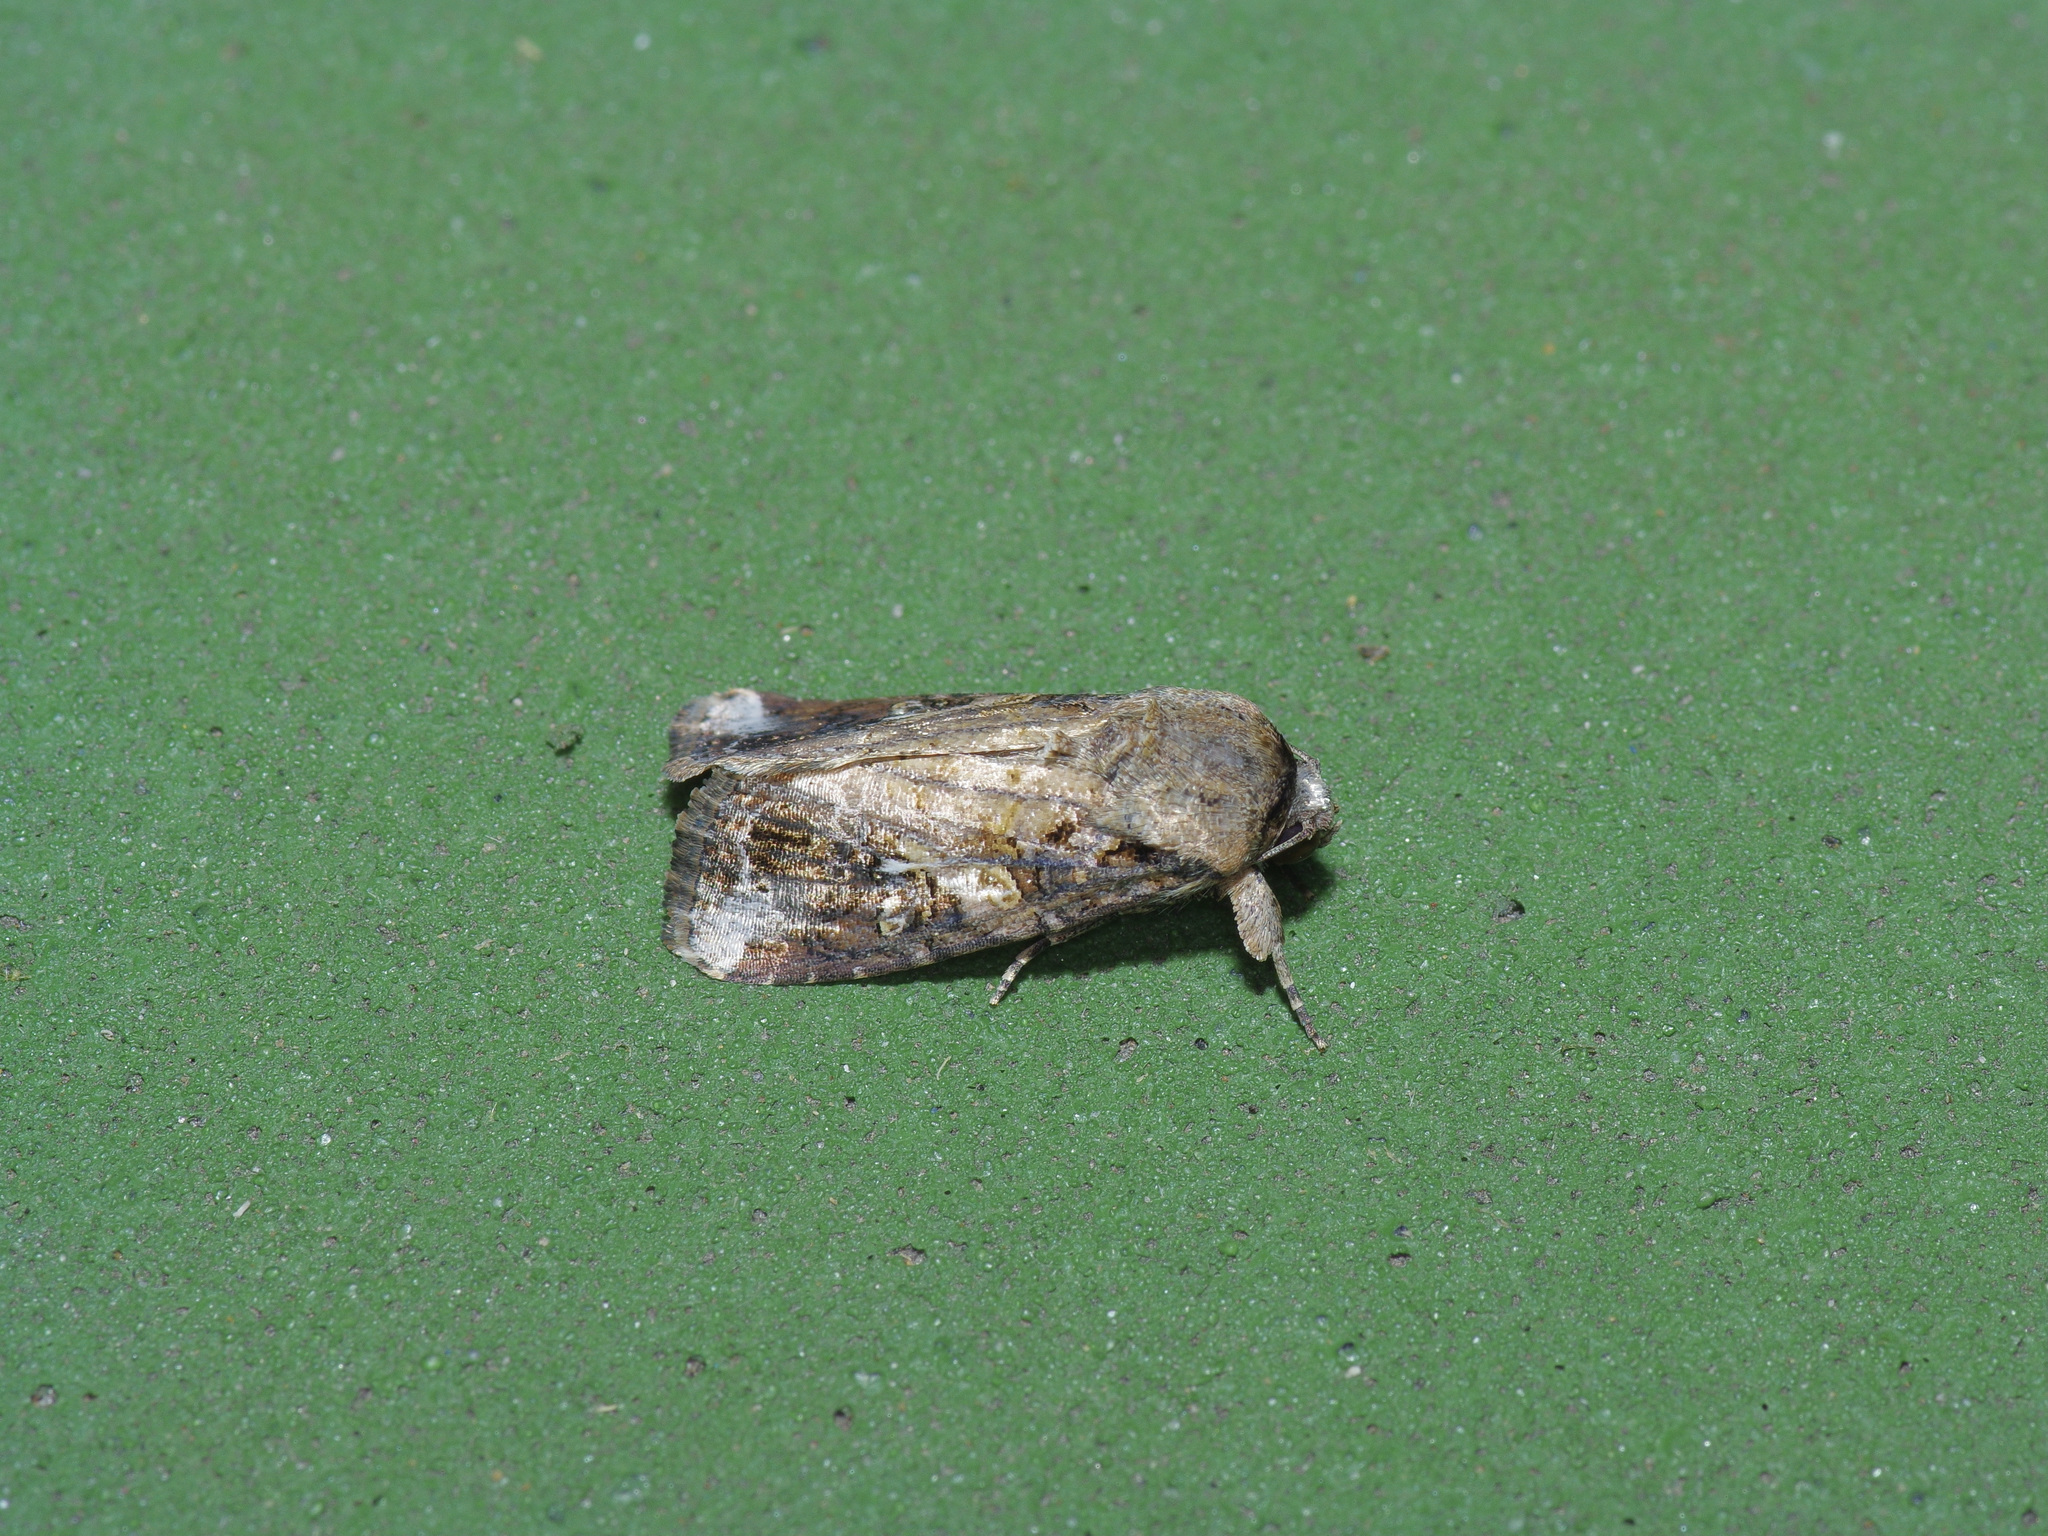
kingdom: Animalia
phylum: Arthropoda
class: Insecta
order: Lepidoptera
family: Noctuidae
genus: Spodoptera
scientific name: Spodoptera frugiperda
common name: Fall armyworm
